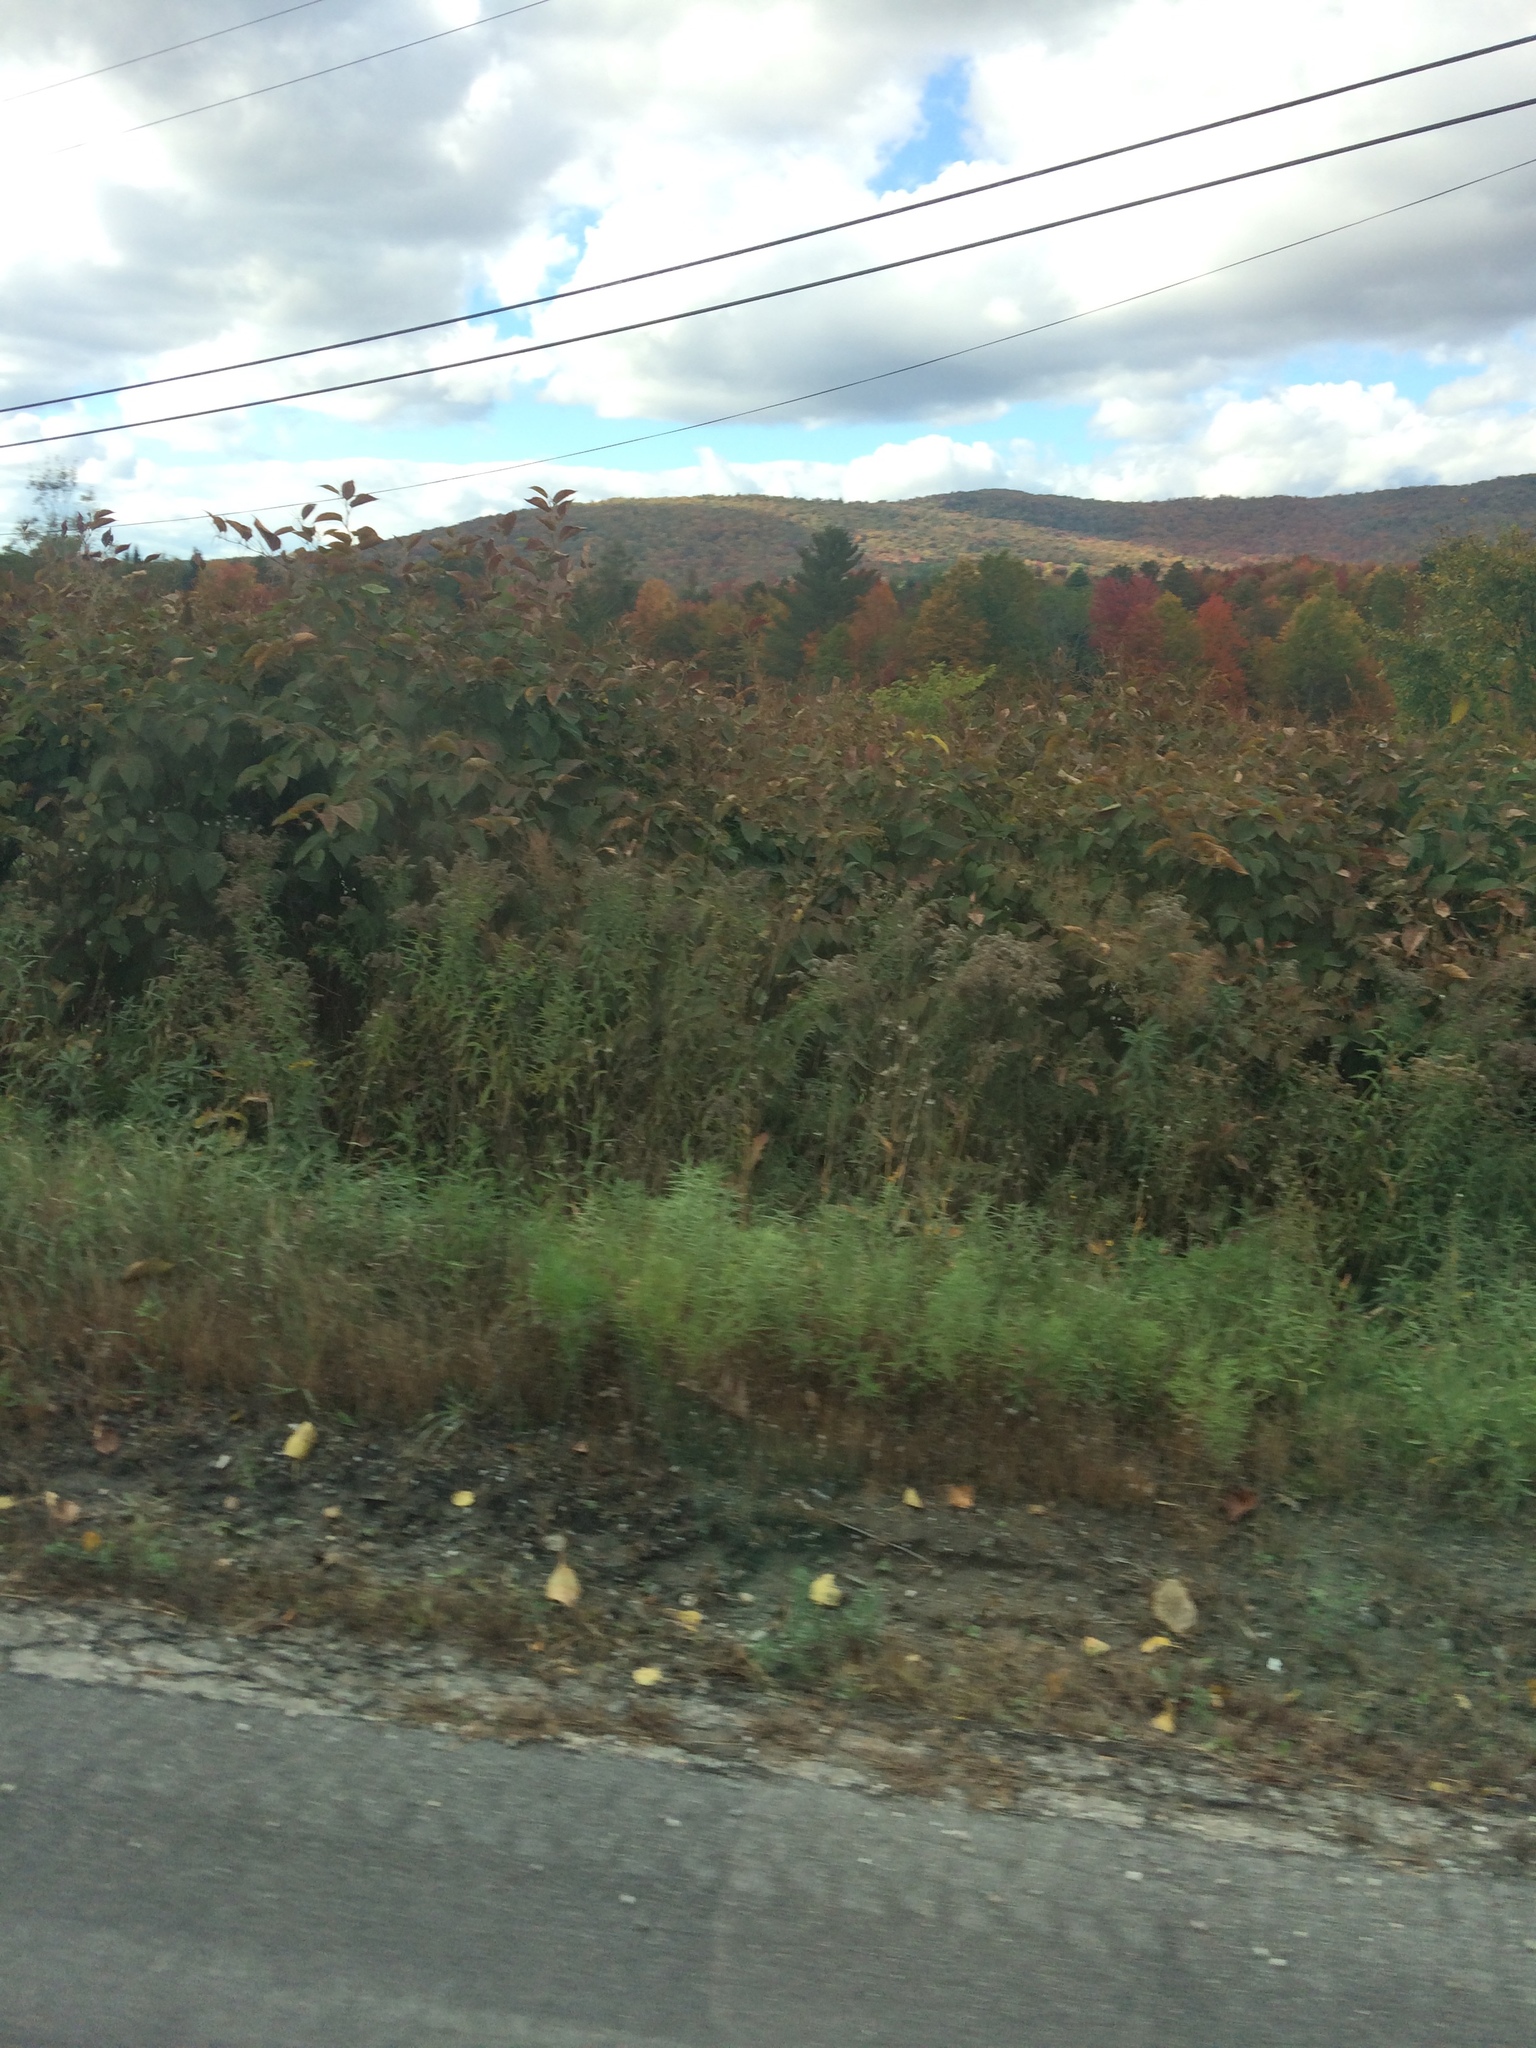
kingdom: Plantae
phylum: Tracheophyta
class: Magnoliopsida
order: Caryophyllales
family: Polygonaceae
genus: Reynoutria
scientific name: Reynoutria japonica
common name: Japanese knotweed
